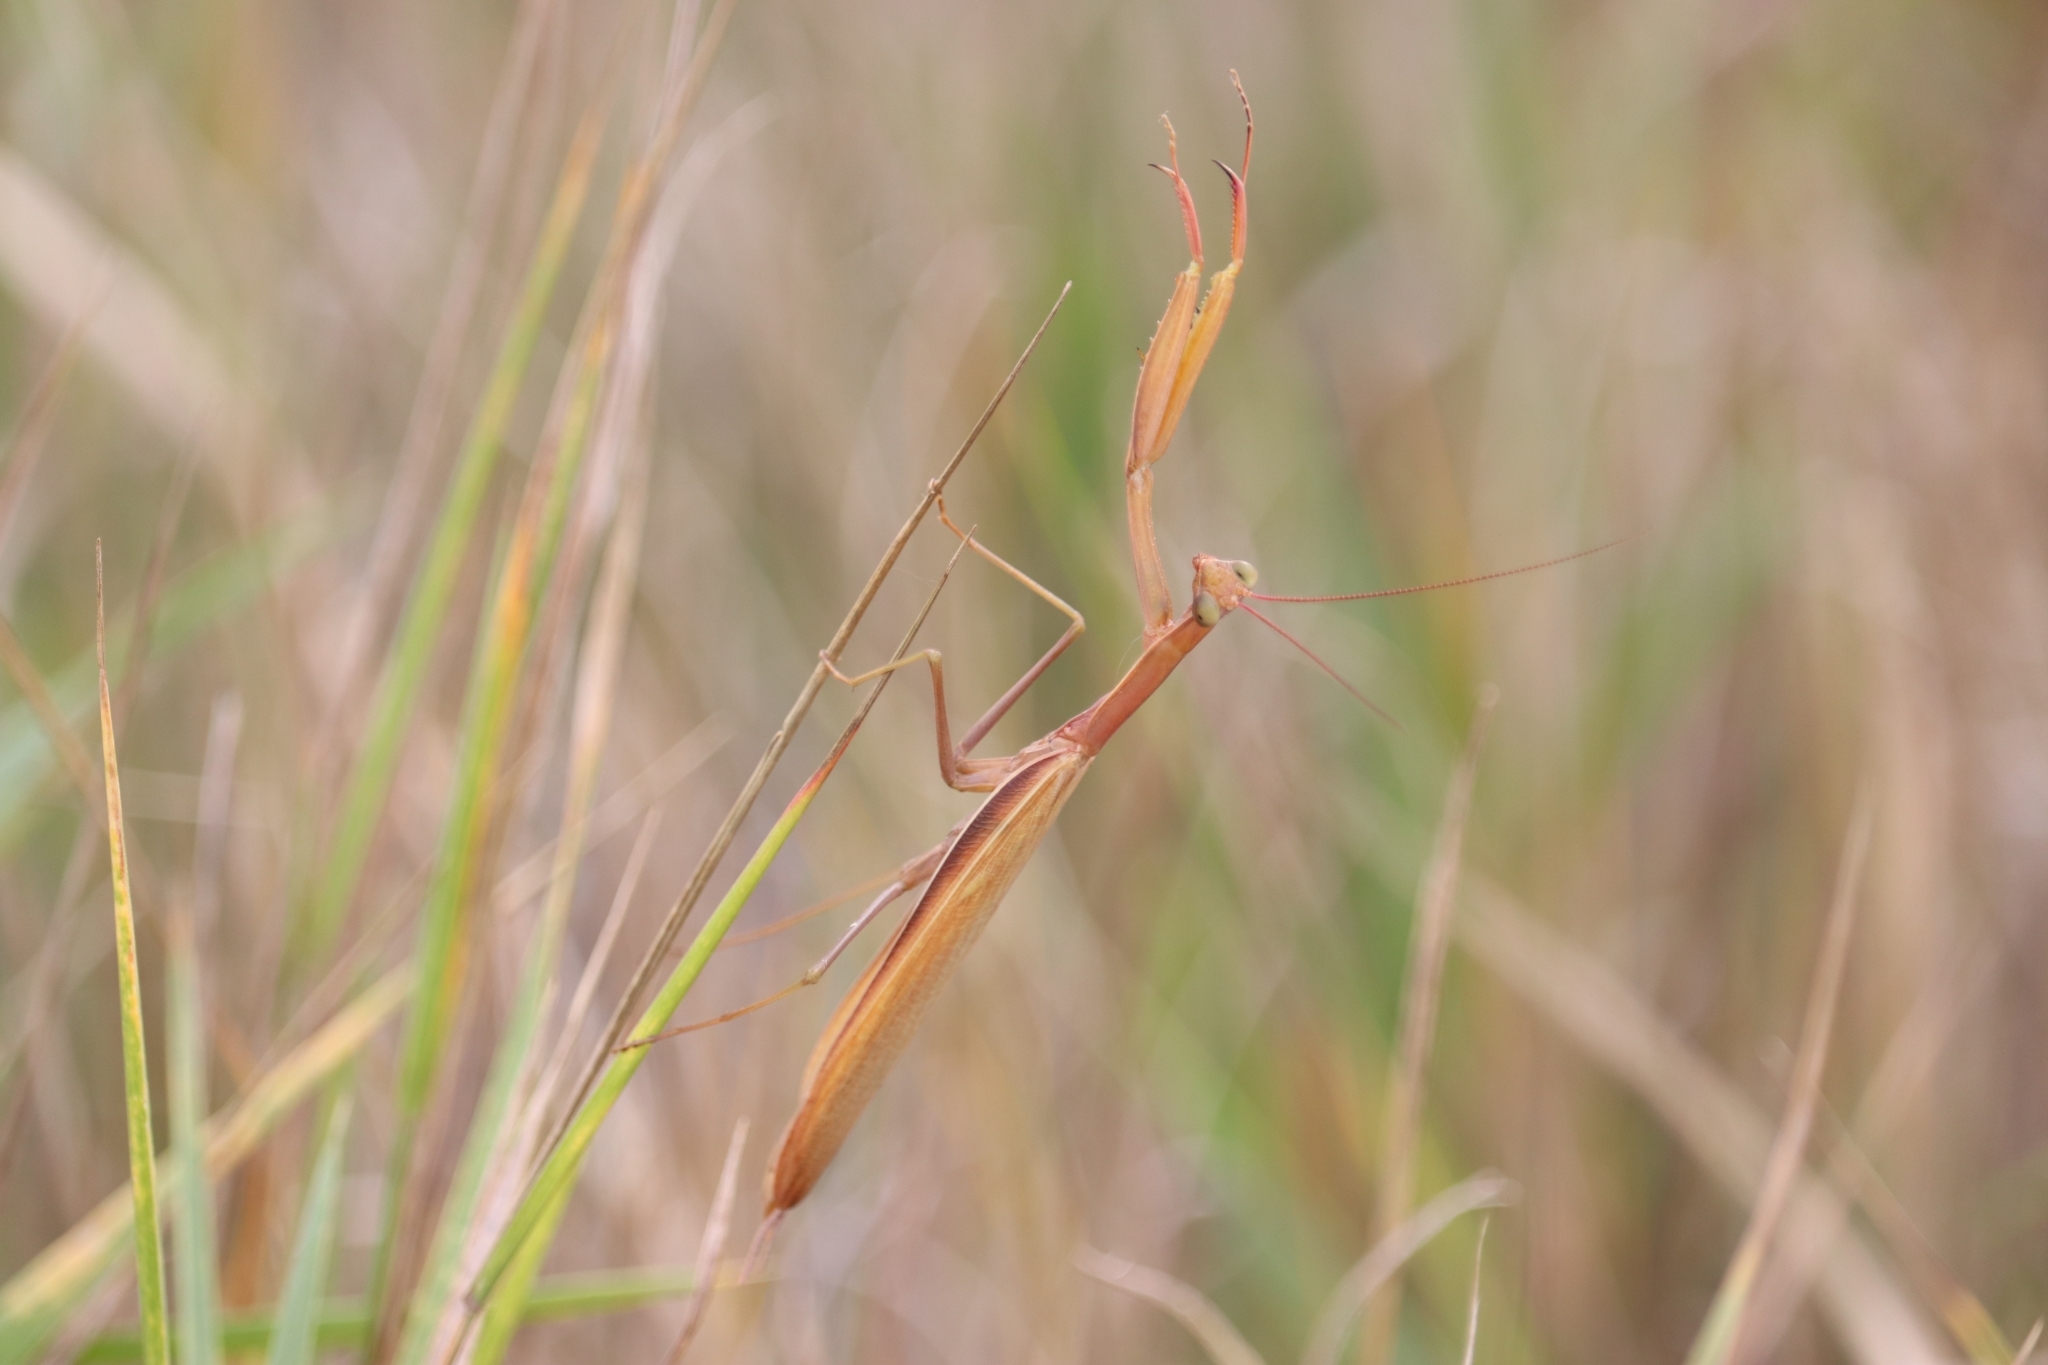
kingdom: Animalia
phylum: Arthropoda
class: Insecta
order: Mantodea
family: Mantidae
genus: Mantis
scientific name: Mantis religiosa
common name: Praying mantis
